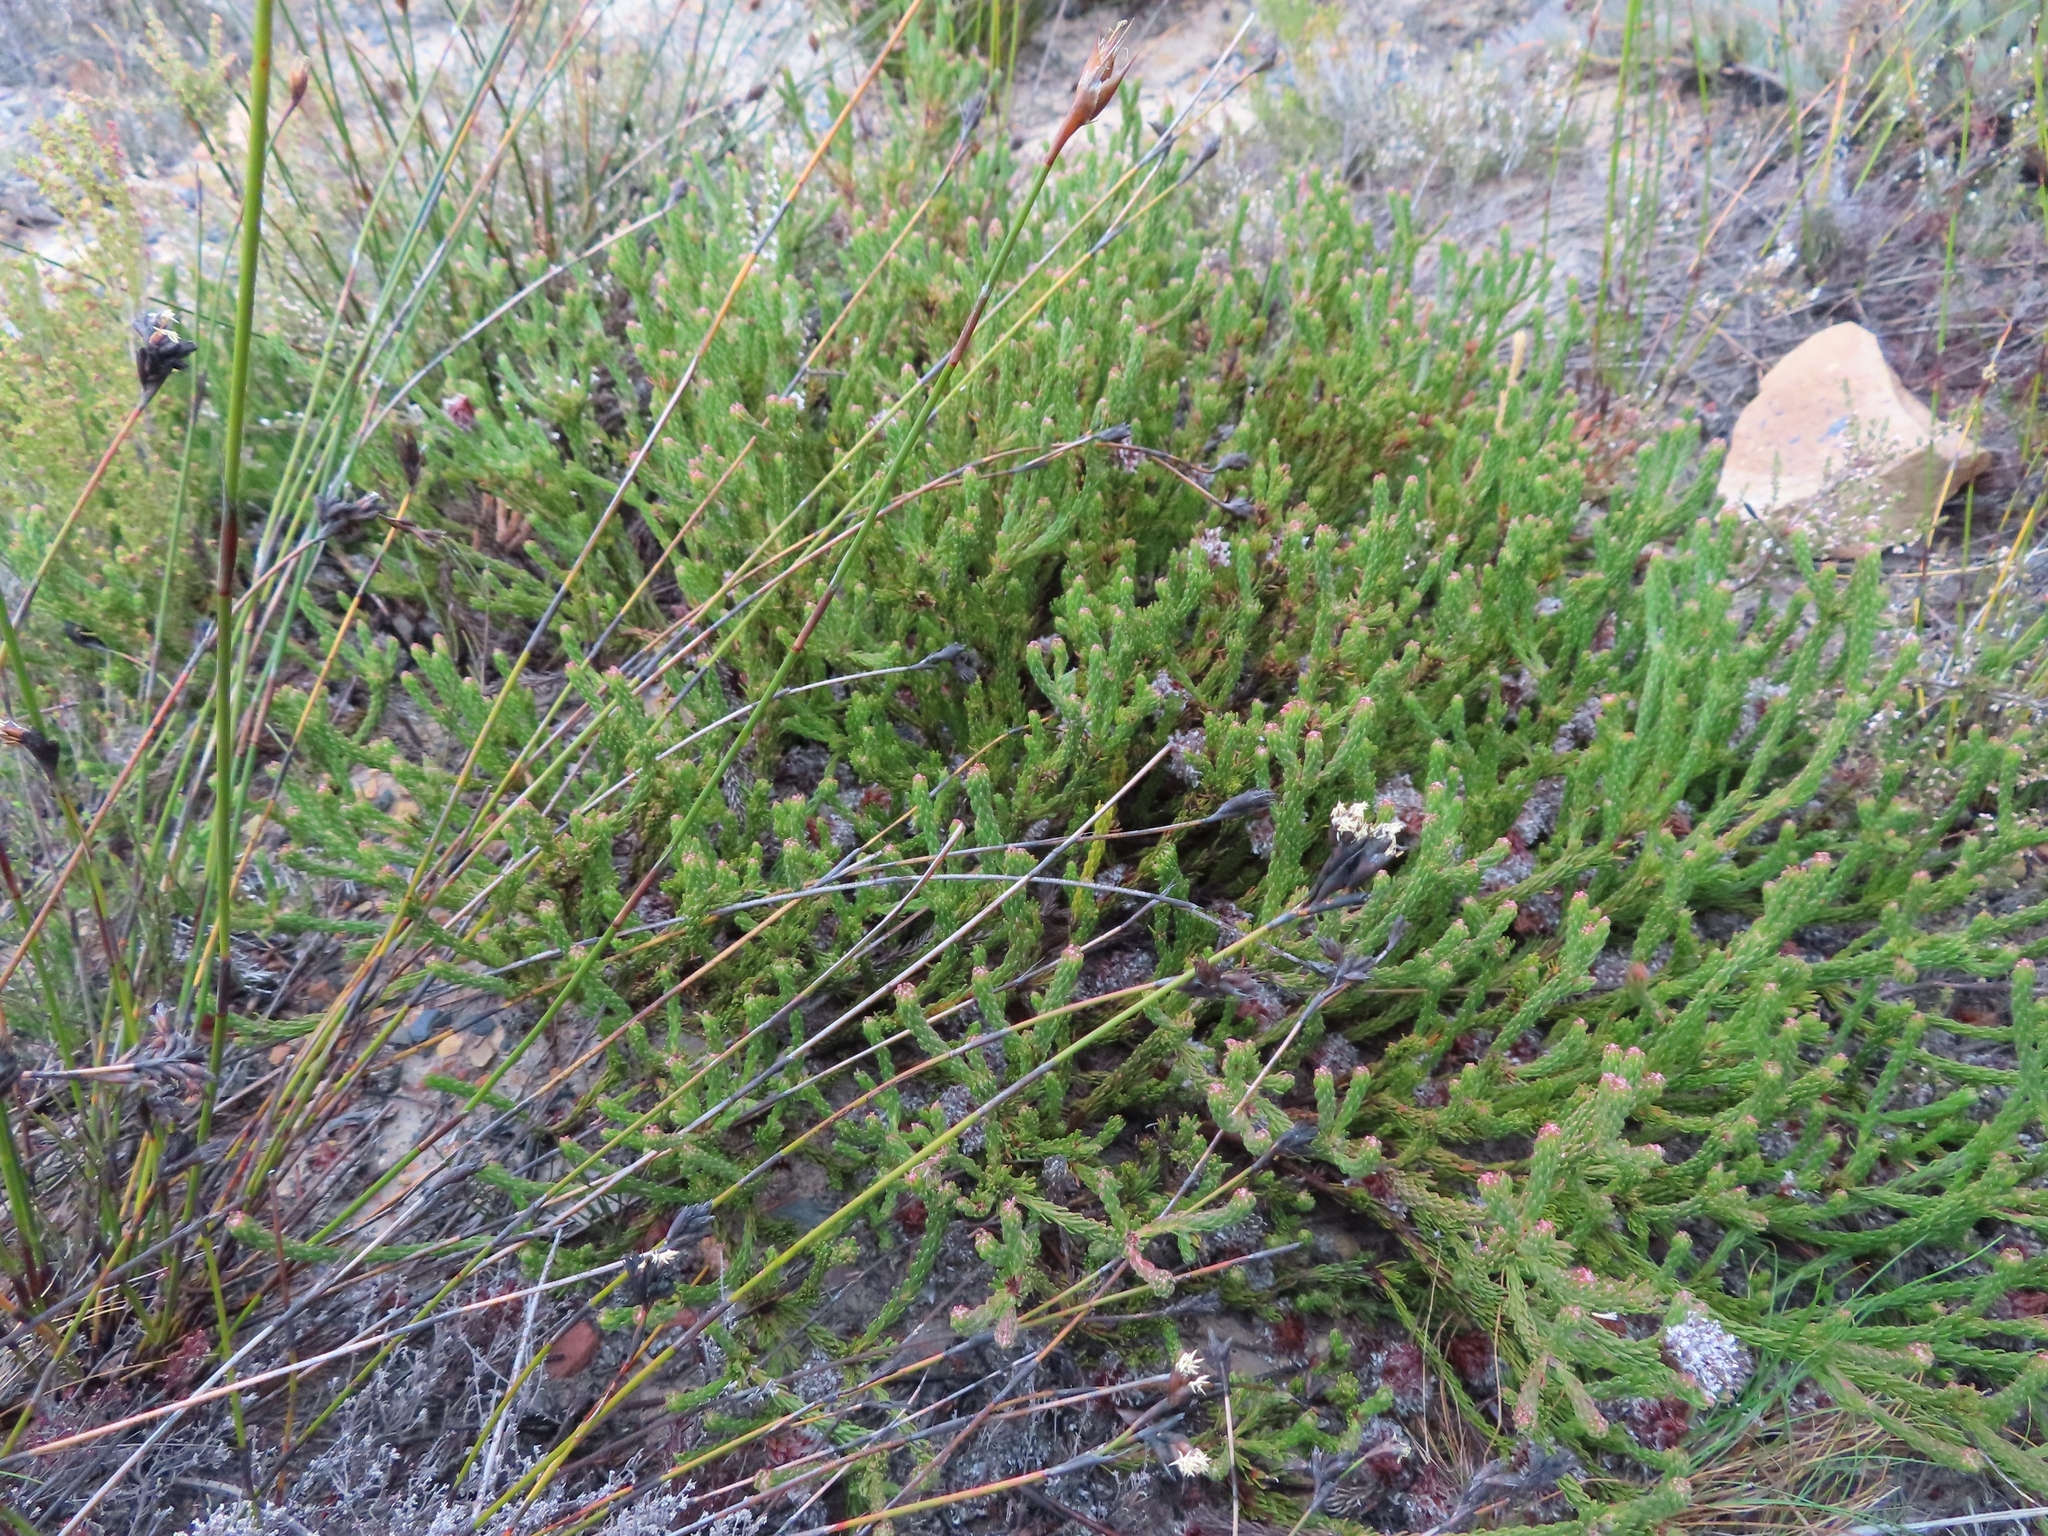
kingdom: Plantae
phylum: Tracheophyta
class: Magnoliopsida
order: Proteales
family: Proteaceae
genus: Sorocephalus
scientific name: Sorocephalus lanatus
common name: Common clusterhead
